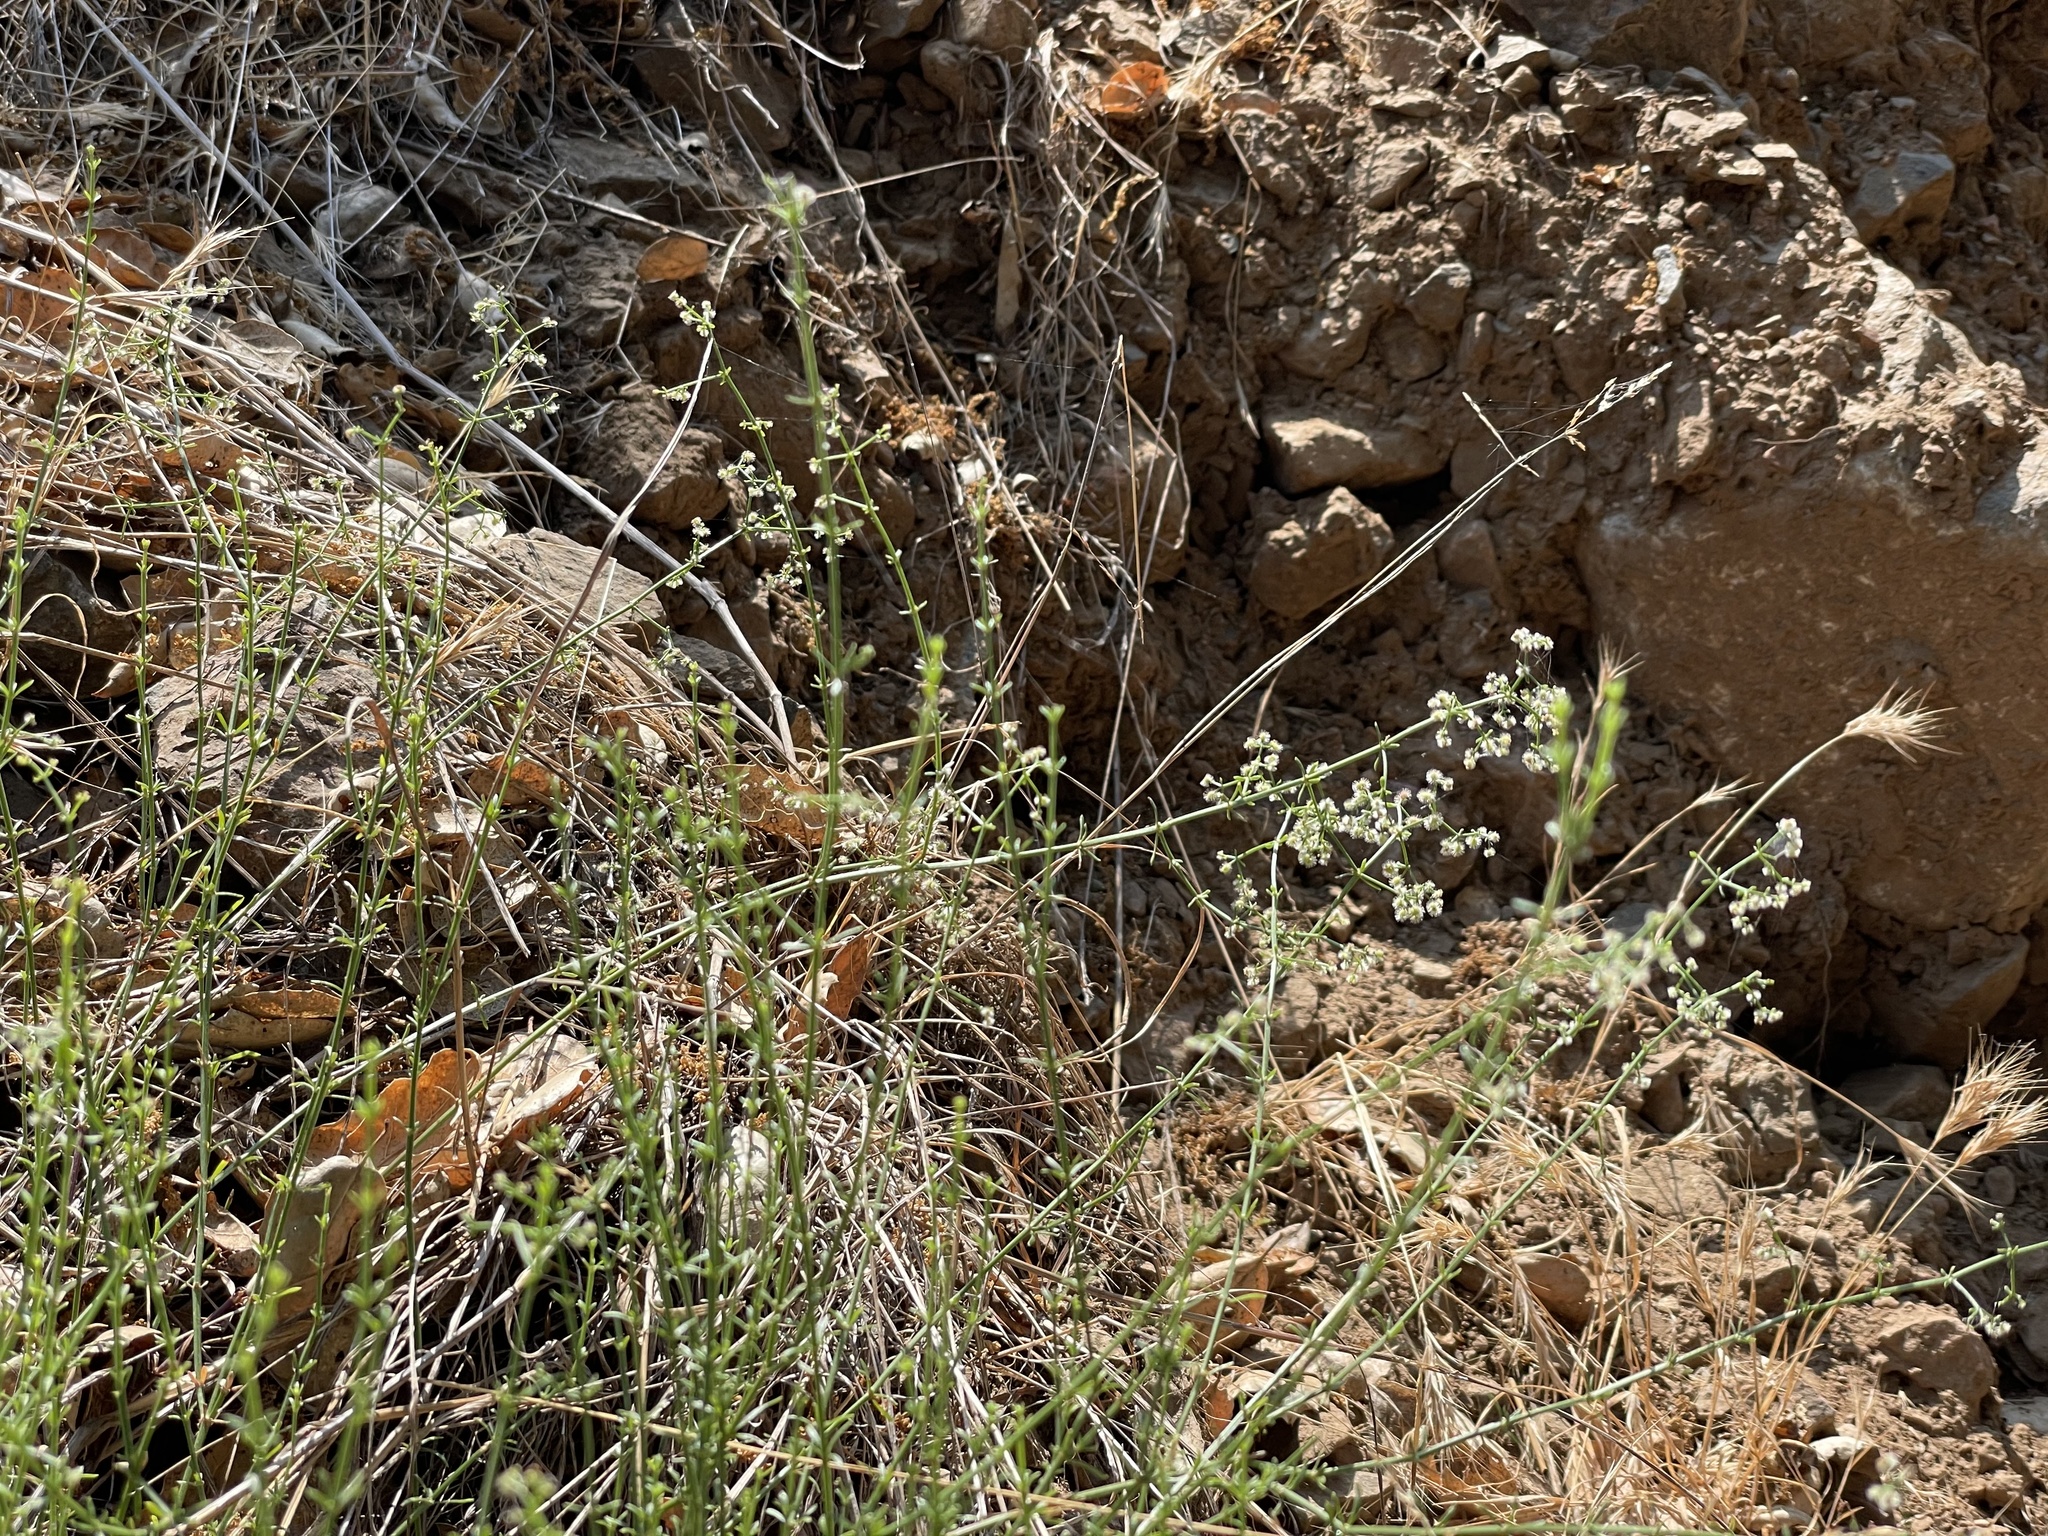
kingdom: Plantae
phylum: Tracheophyta
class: Magnoliopsida
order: Gentianales
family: Rubiaceae
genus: Galium
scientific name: Galium angustifolium
